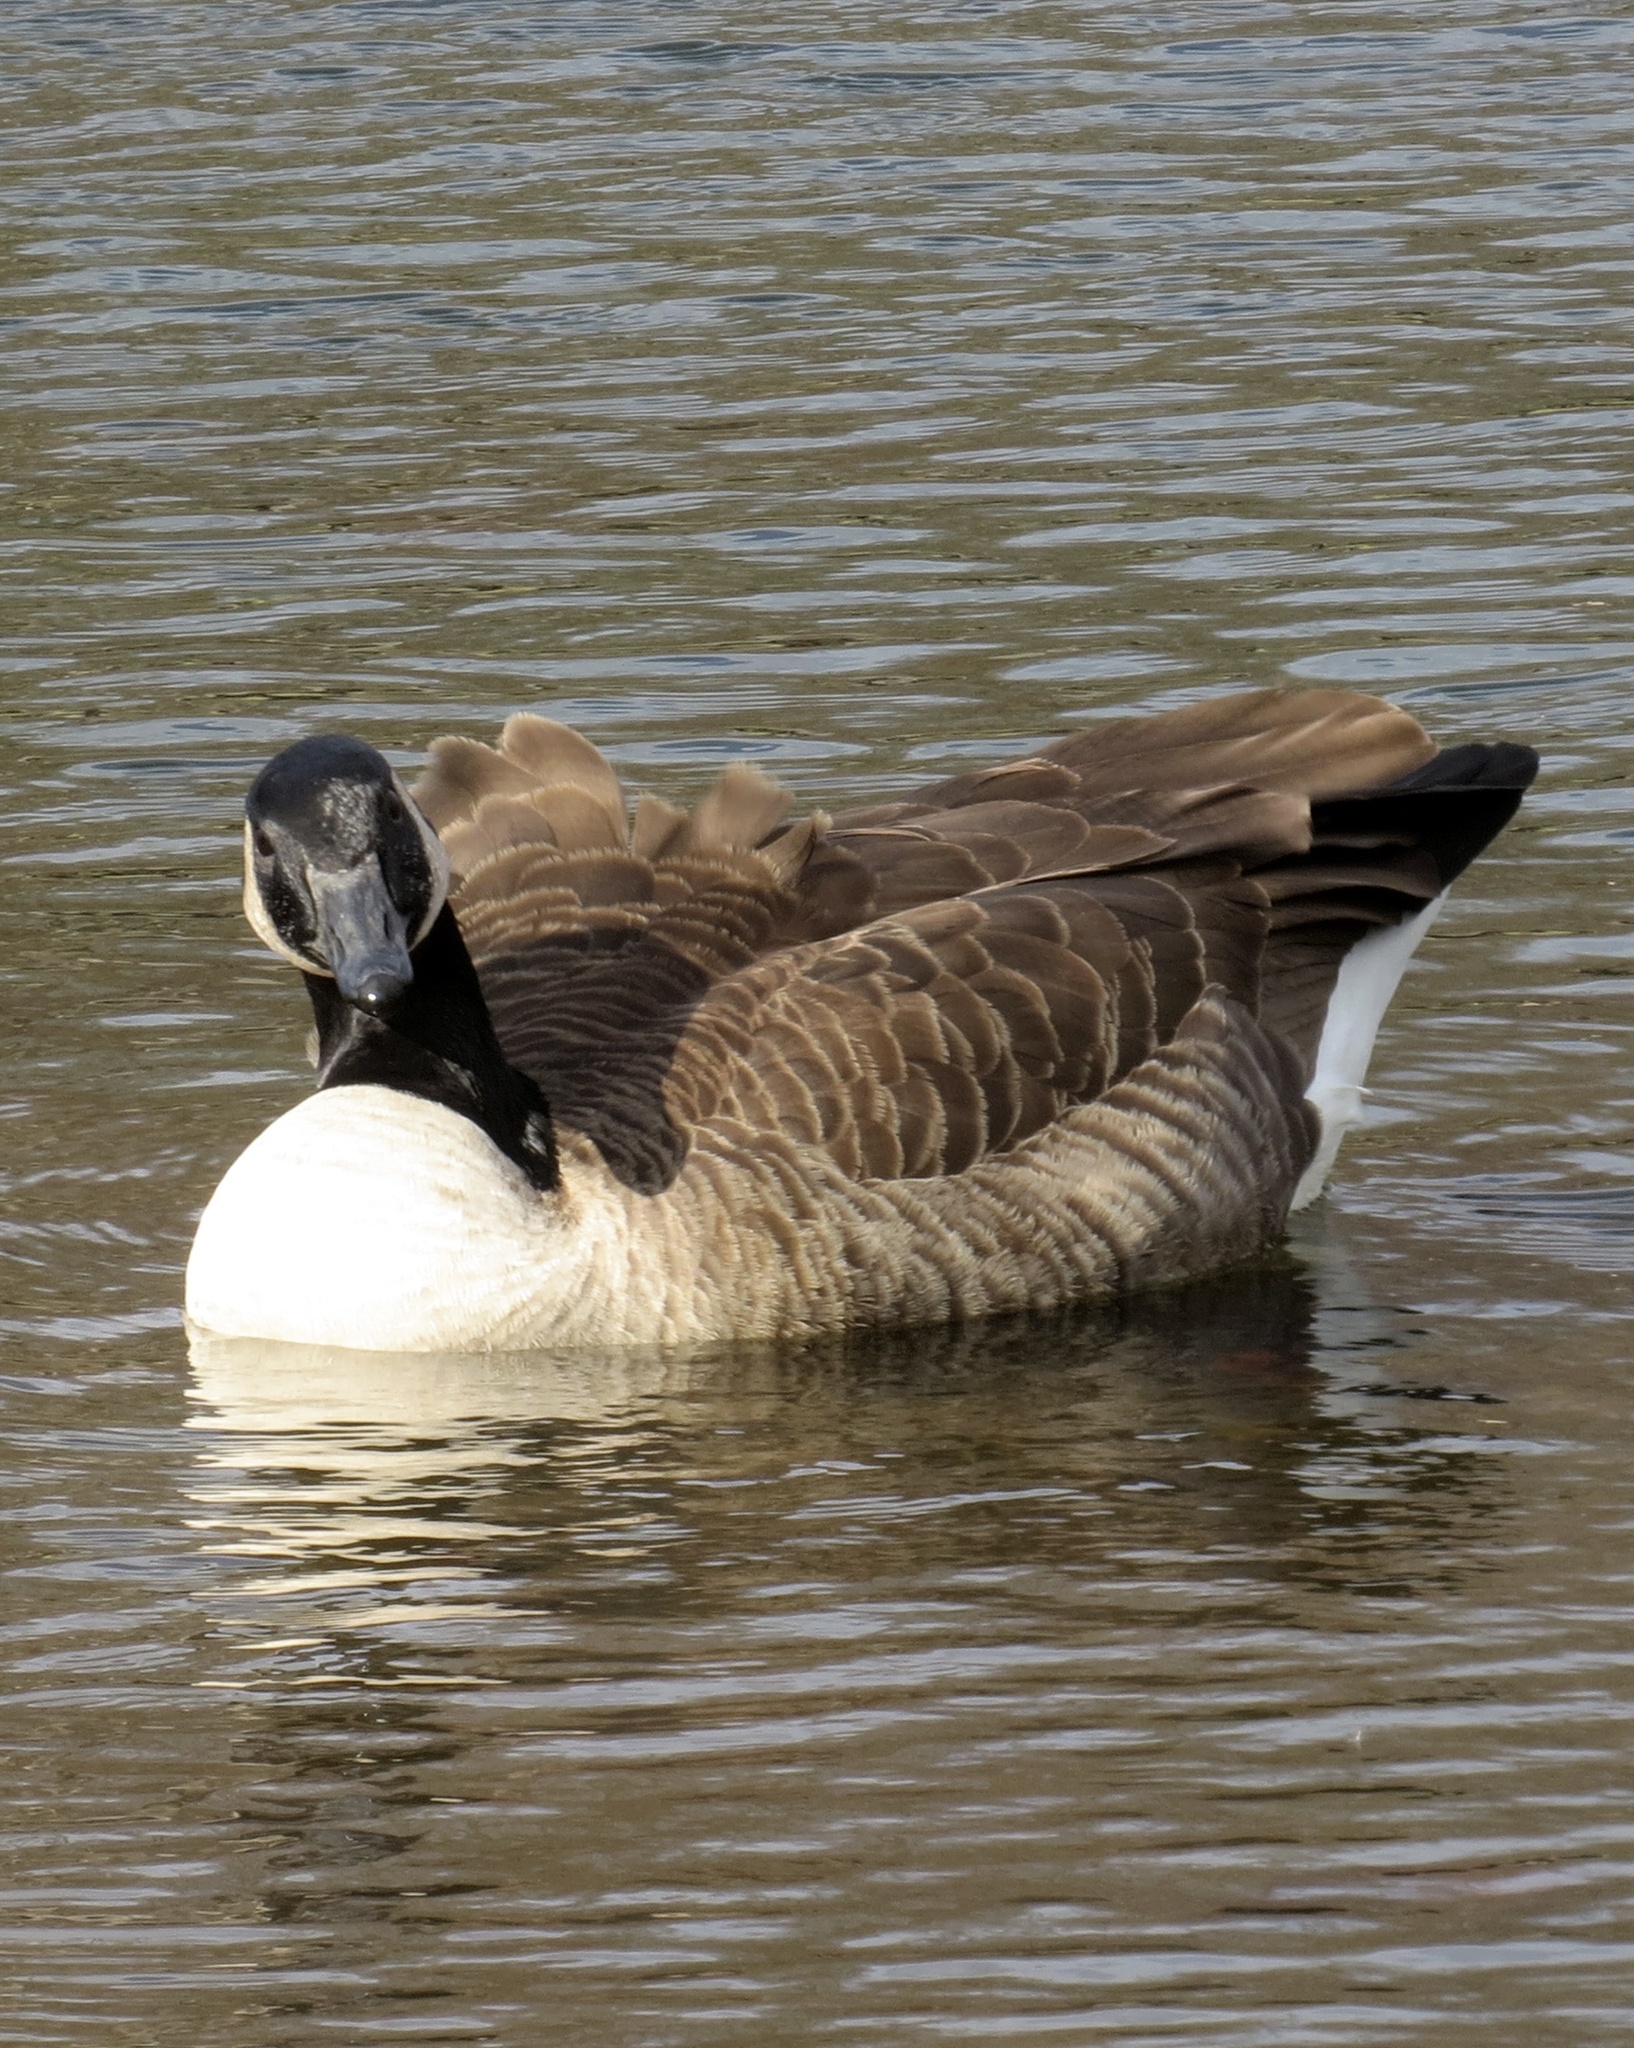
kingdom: Animalia
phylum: Chordata
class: Aves
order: Anseriformes
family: Anatidae
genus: Branta
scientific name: Branta canadensis
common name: Canada goose
